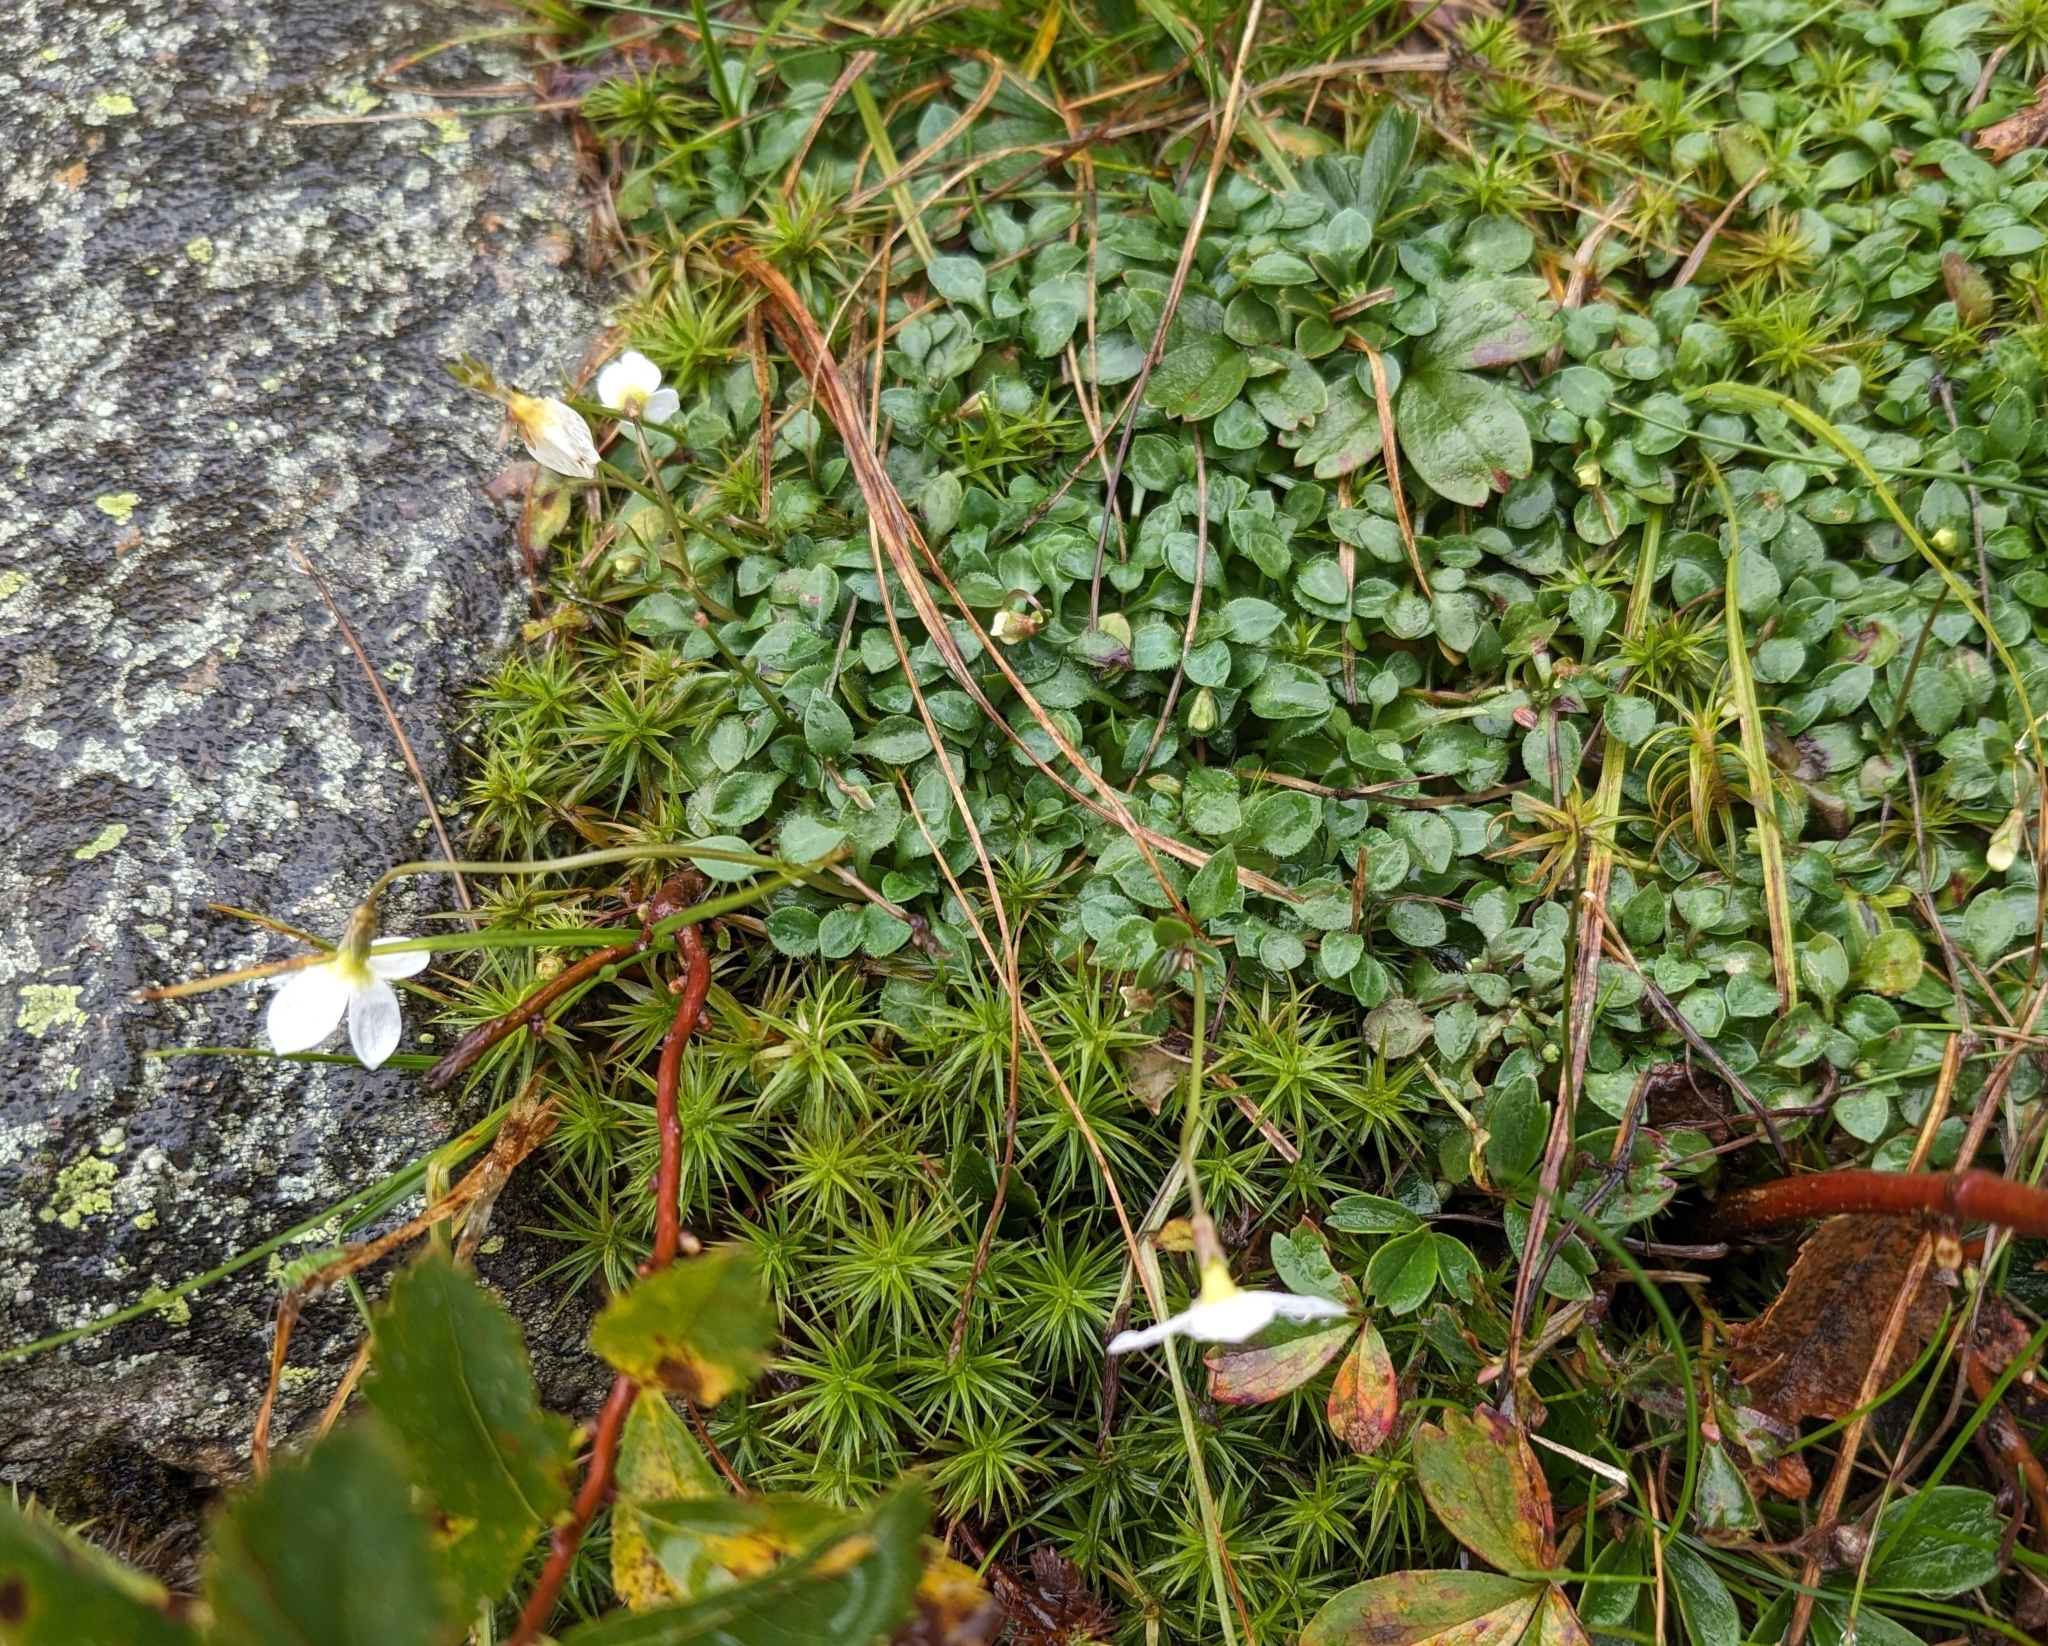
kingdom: Plantae
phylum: Tracheophyta
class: Magnoliopsida
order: Gentianales
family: Rubiaceae
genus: Houstonia
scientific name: Houstonia caerulea
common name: Bluets
